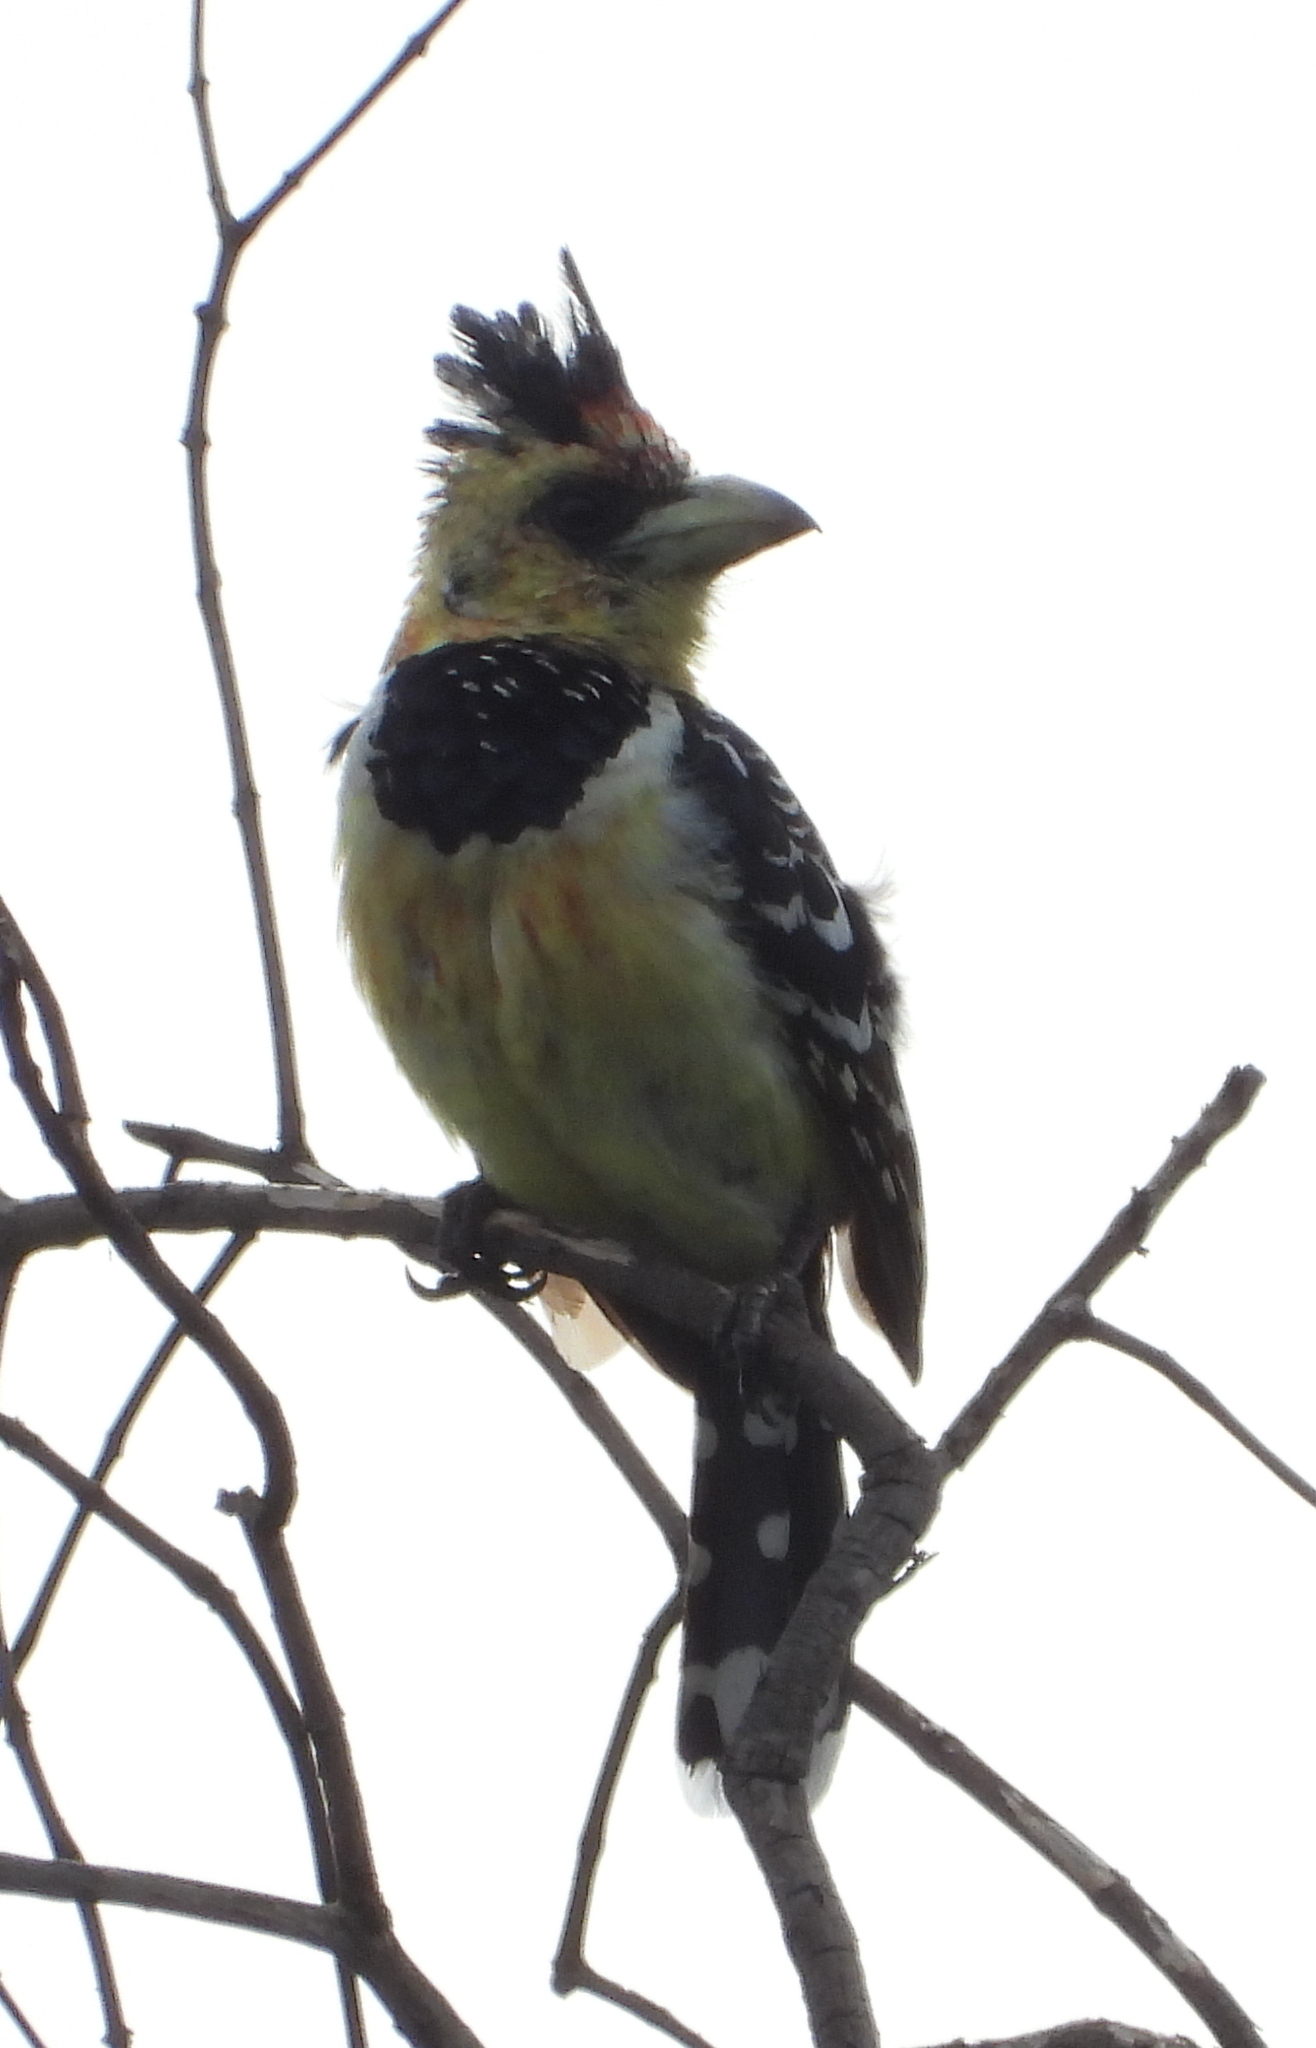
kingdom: Animalia
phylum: Chordata
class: Aves
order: Piciformes
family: Lybiidae
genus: Trachyphonus
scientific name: Trachyphonus vaillantii
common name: Crested barbet
